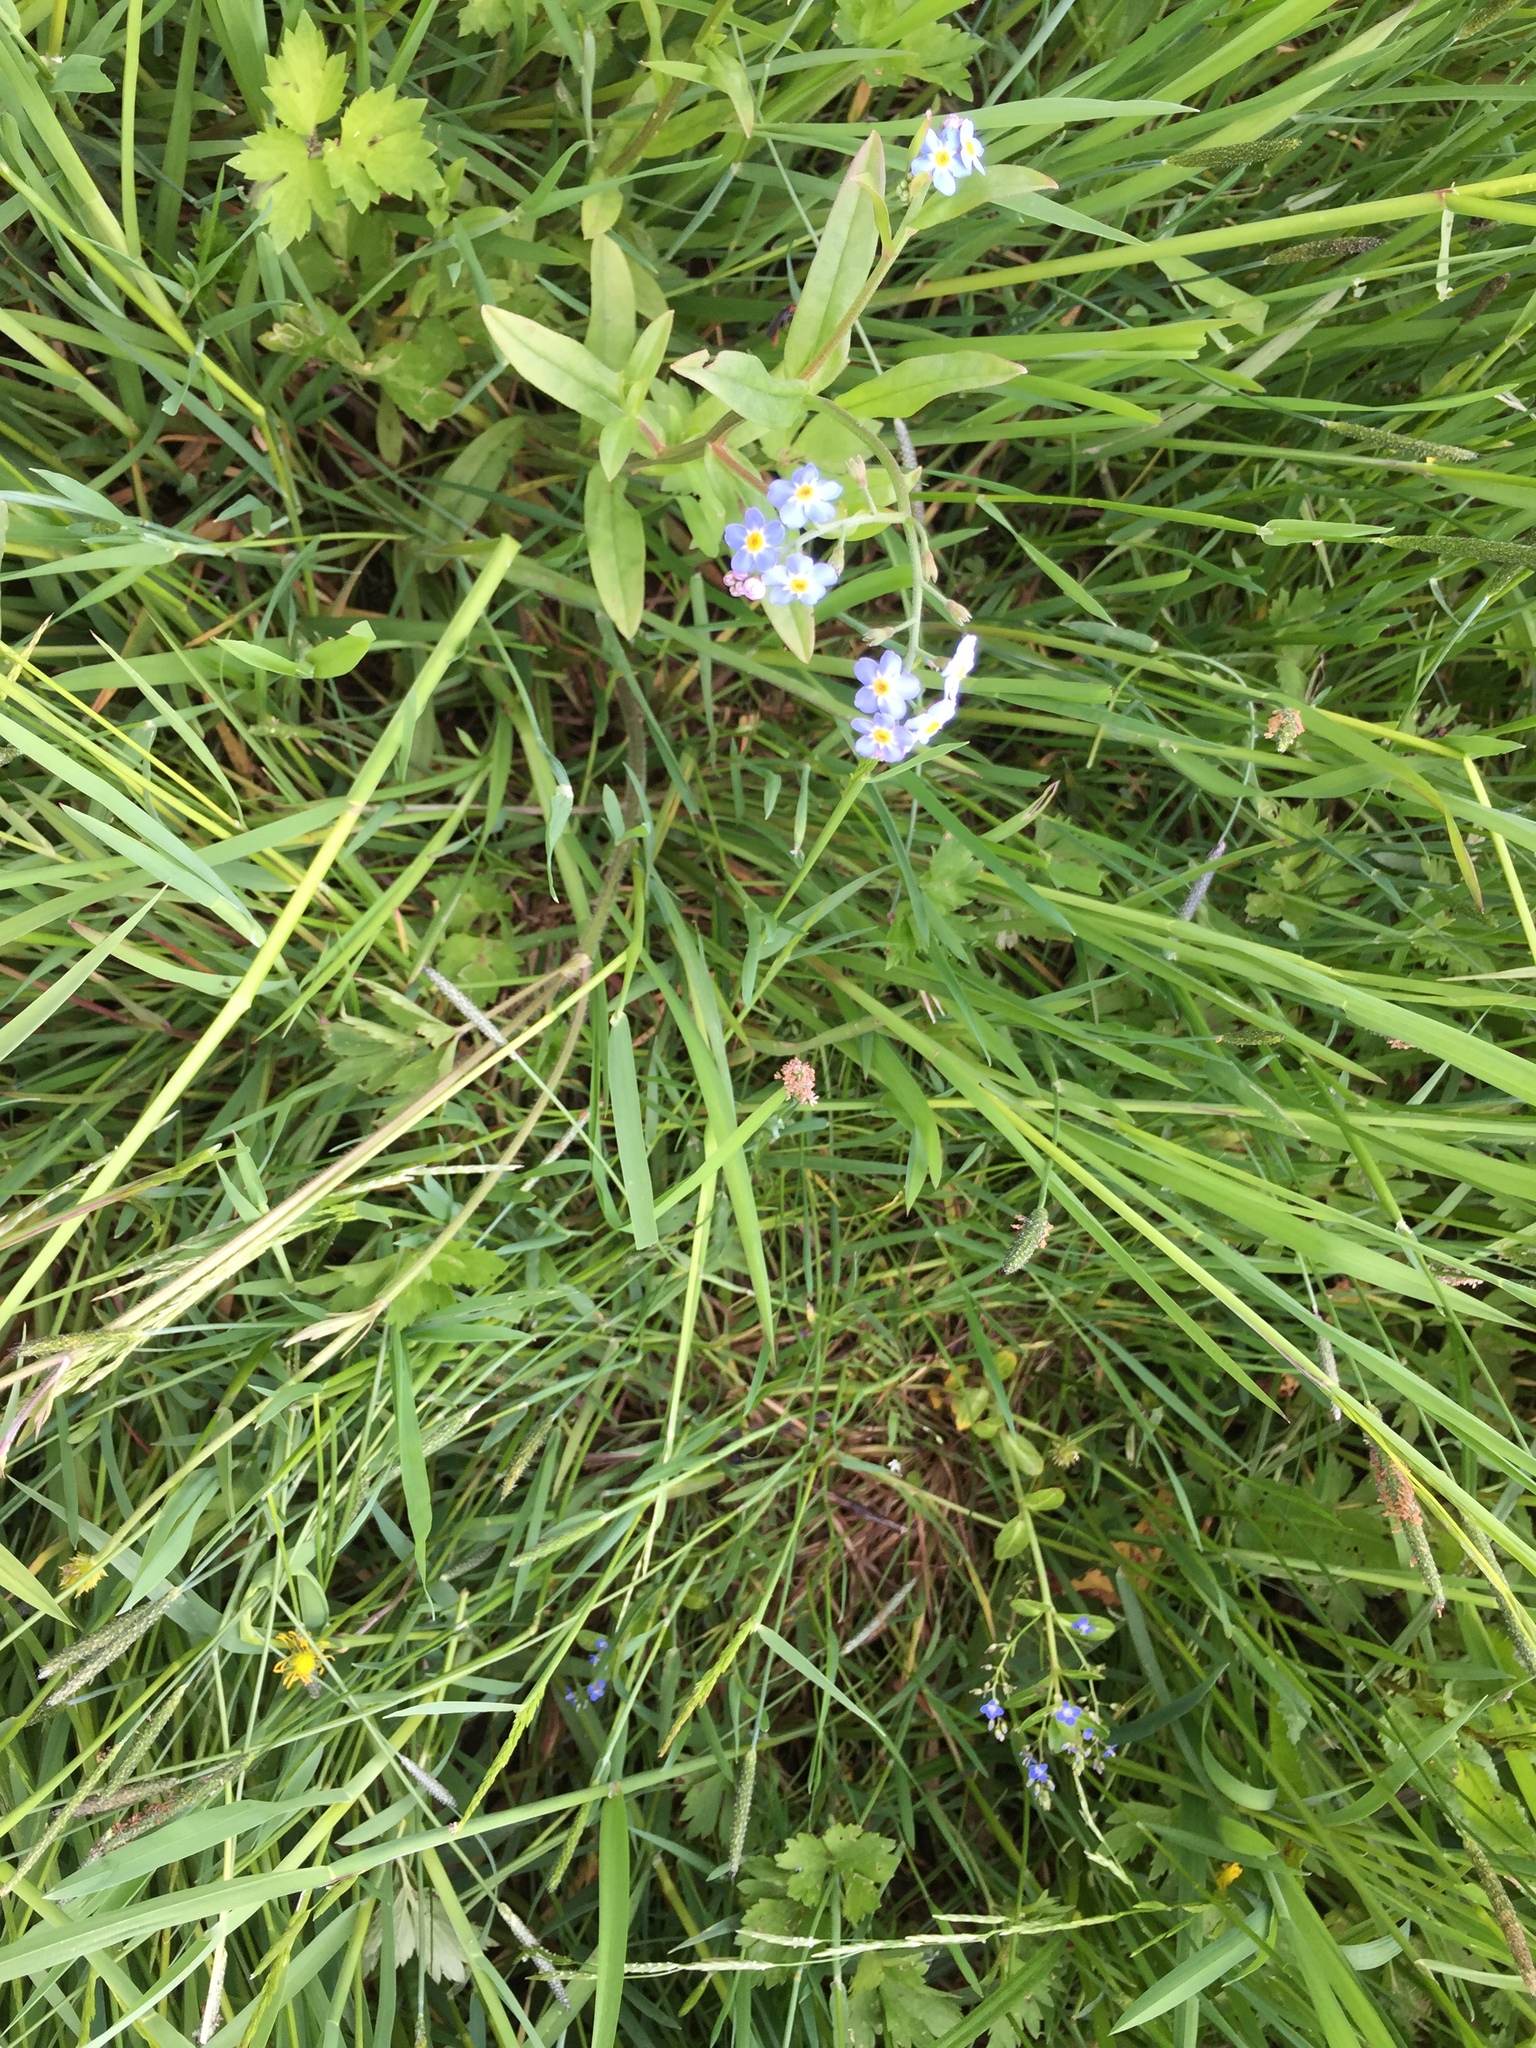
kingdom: Plantae
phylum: Tracheophyta
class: Magnoliopsida
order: Lamiales
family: Plantaginaceae
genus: Veronica
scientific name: Veronica beccabunga
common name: Brooklime
